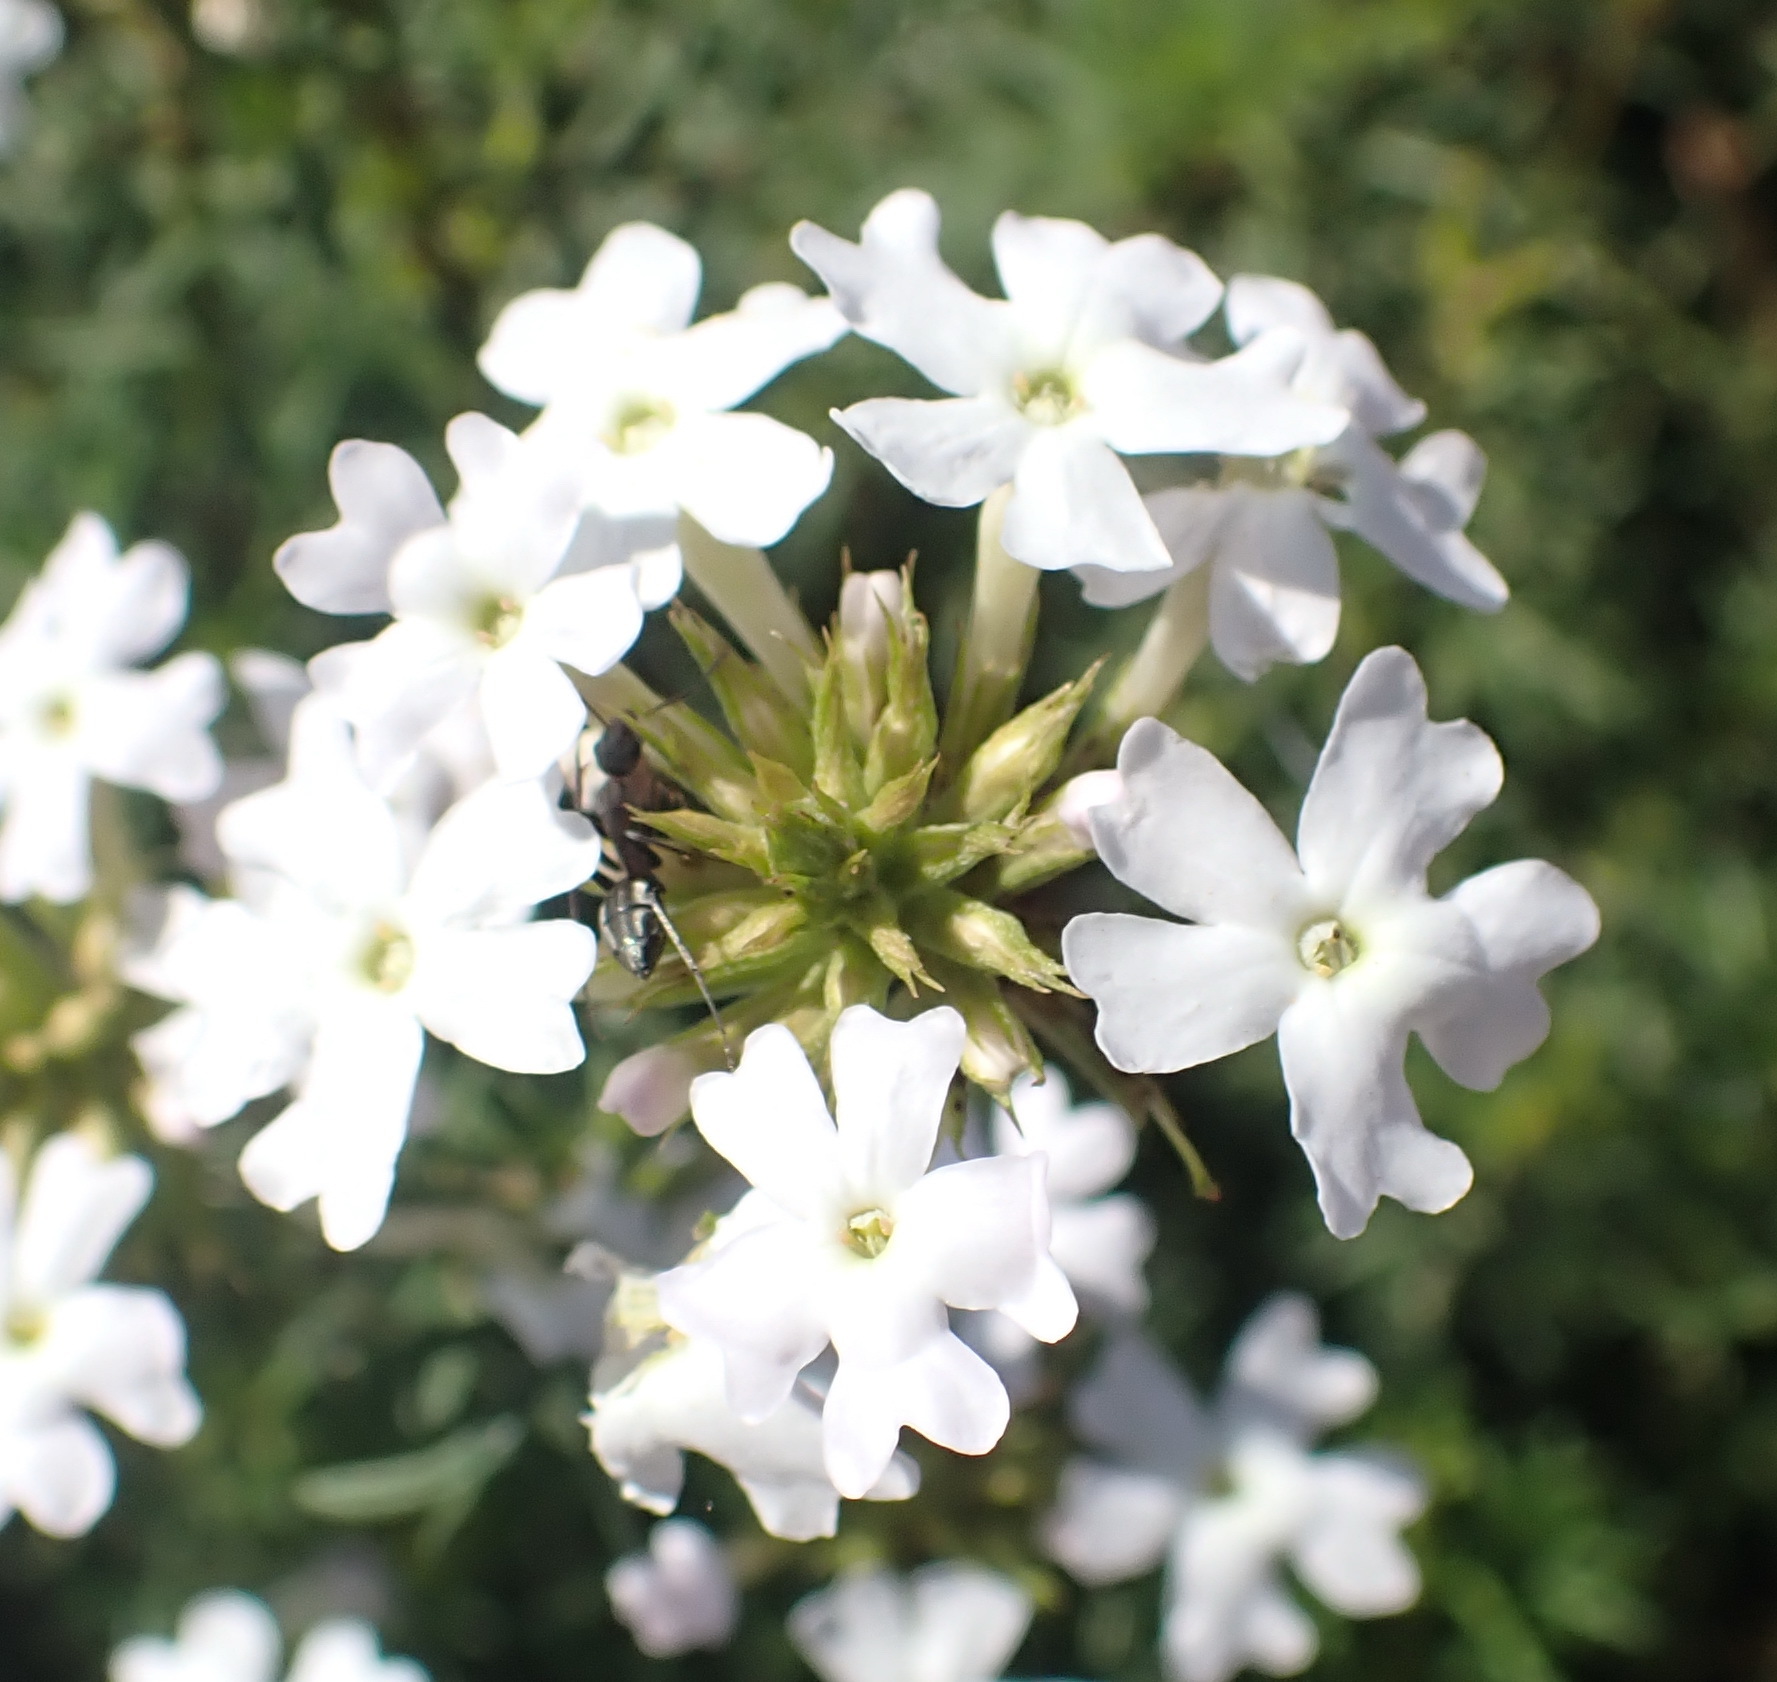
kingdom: Plantae
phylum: Tracheophyta
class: Magnoliopsida
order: Lamiales
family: Verbenaceae
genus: Verbena
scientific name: Verbena aristigera
